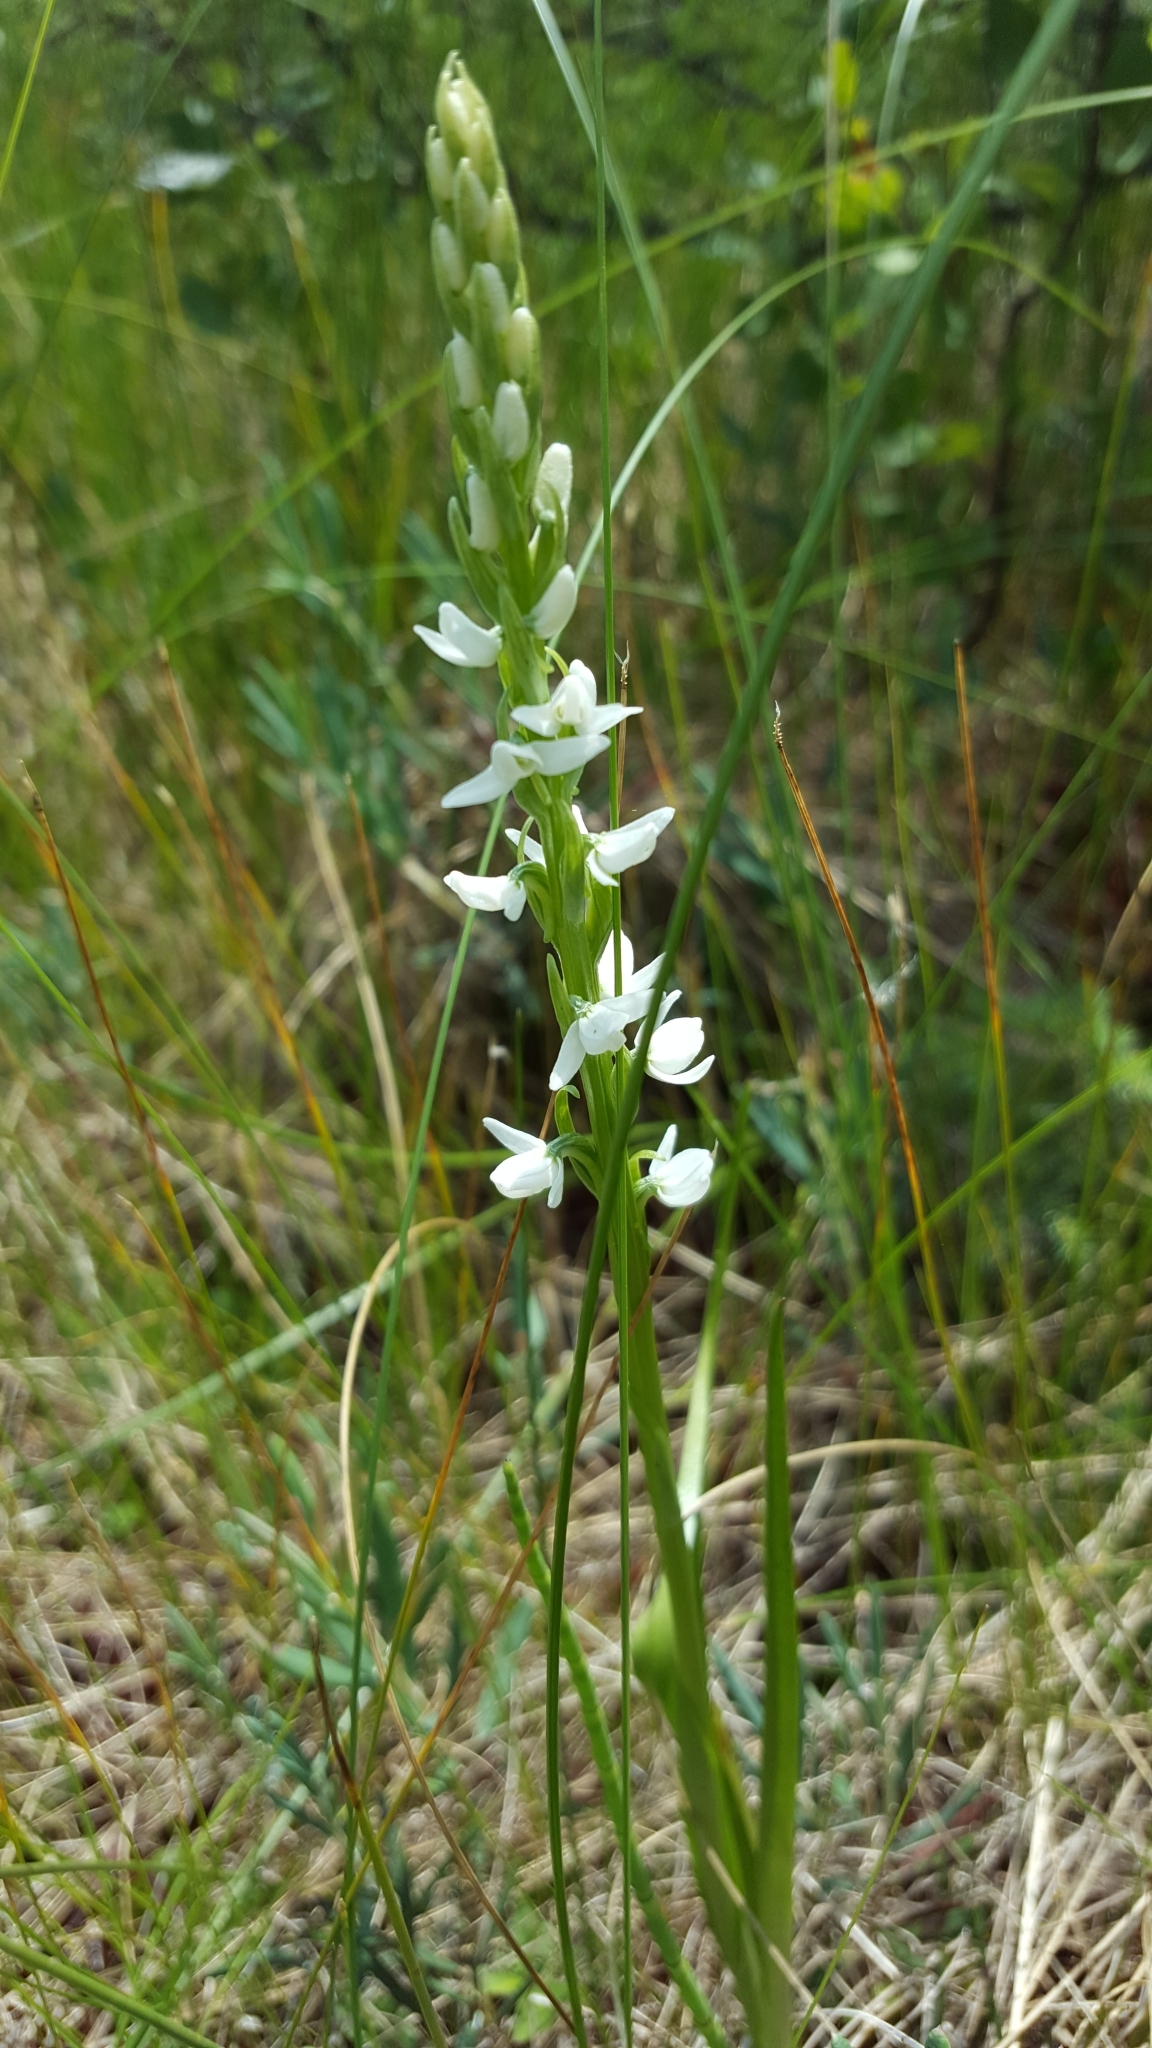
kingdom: Plantae
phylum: Tracheophyta
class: Liliopsida
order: Asparagales
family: Orchidaceae
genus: Platanthera
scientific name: Platanthera dilatata
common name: Bog candles
